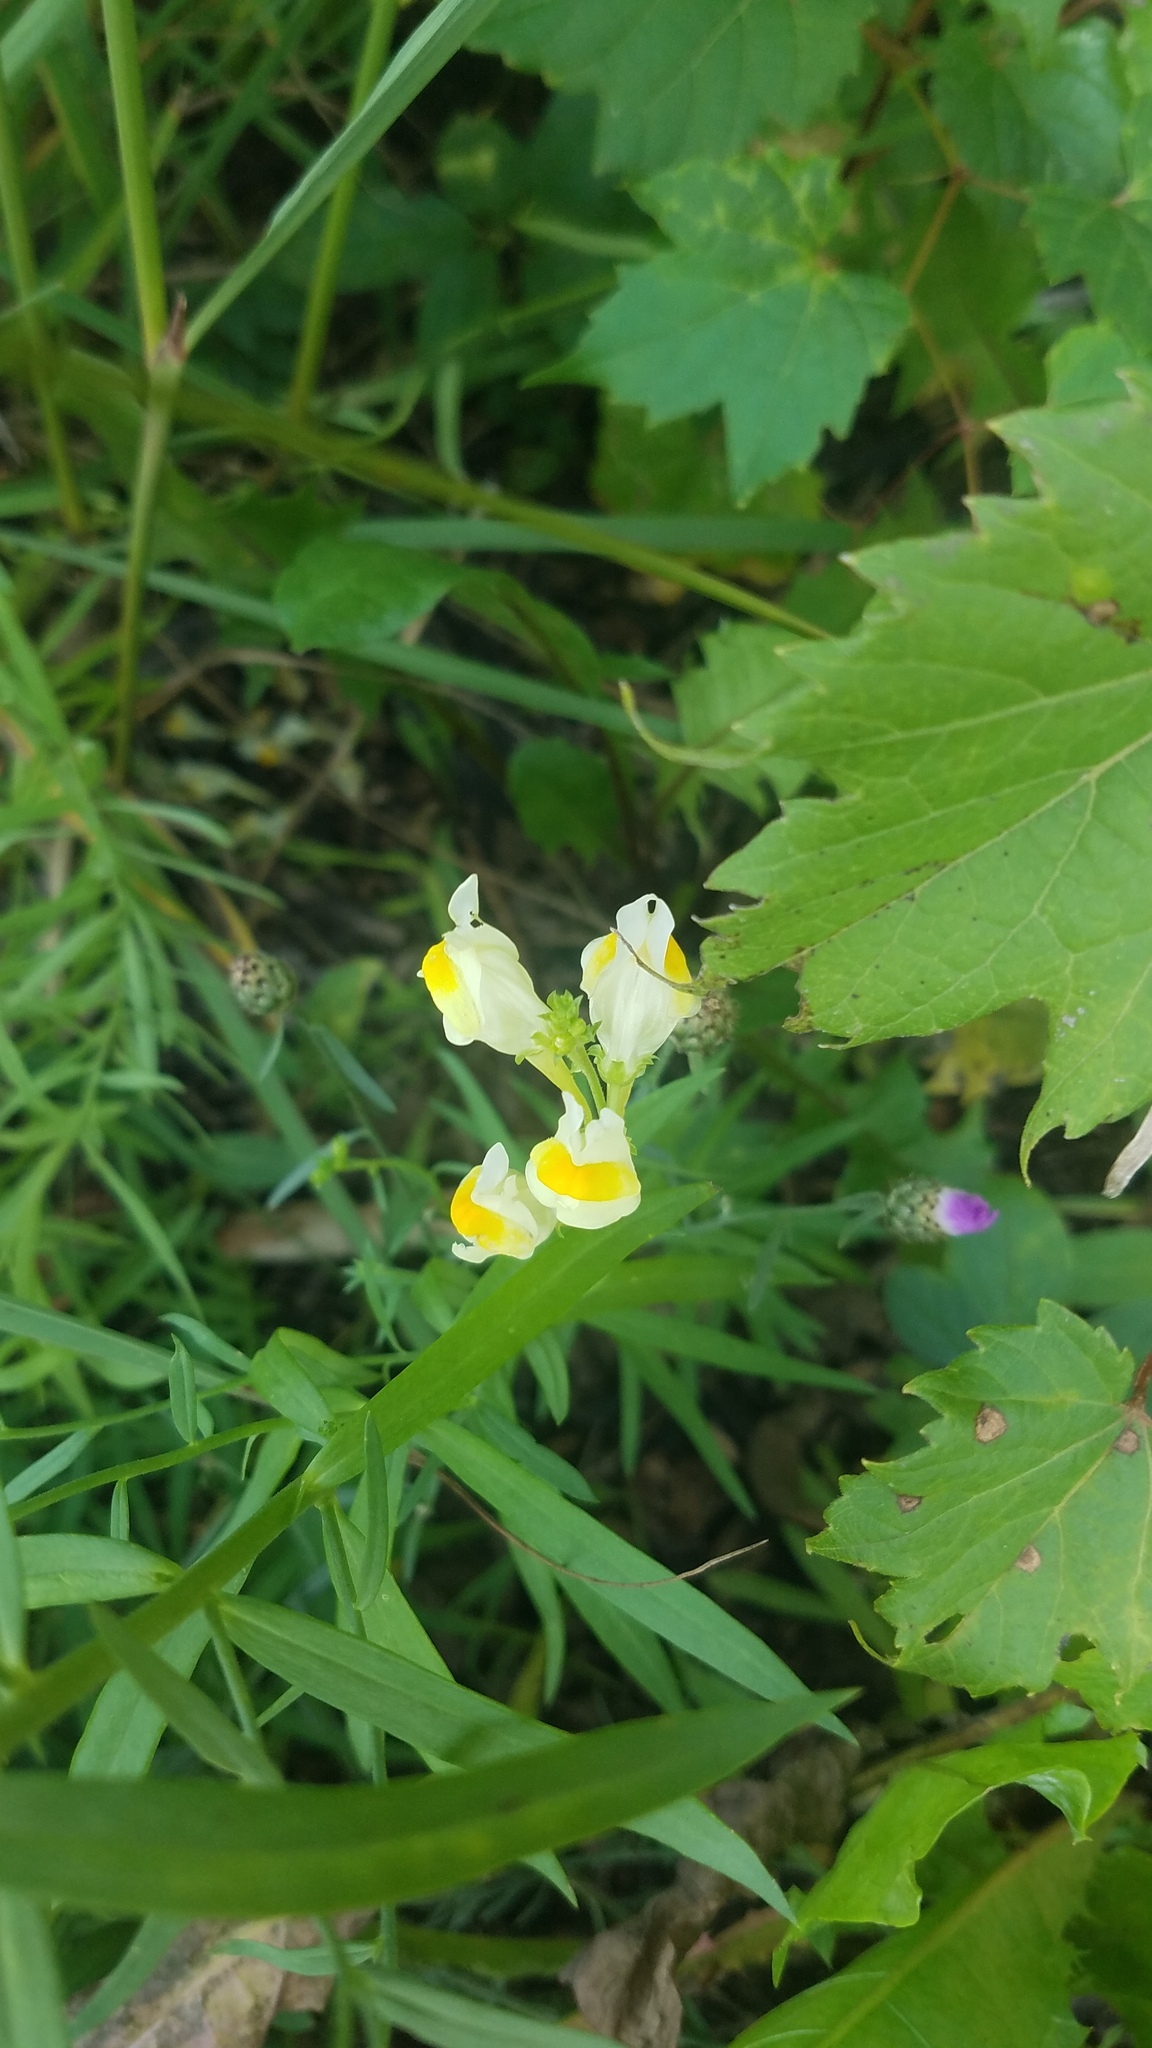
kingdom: Plantae
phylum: Tracheophyta
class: Magnoliopsida
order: Lamiales
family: Plantaginaceae
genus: Linaria
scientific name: Linaria vulgaris
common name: Butter and eggs
